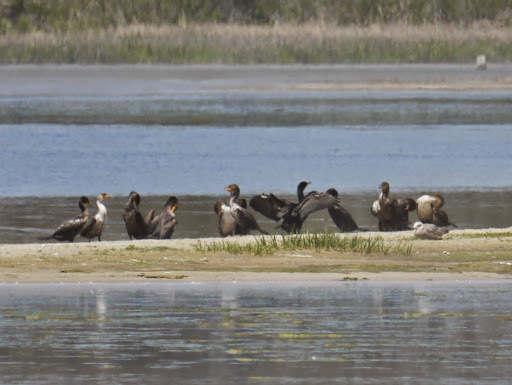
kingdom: Animalia
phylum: Chordata
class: Aves
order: Suliformes
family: Phalacrocoracidae
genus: Phalacrocorax
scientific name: Phalacrocorax auritus
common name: Double-crested cormorant
